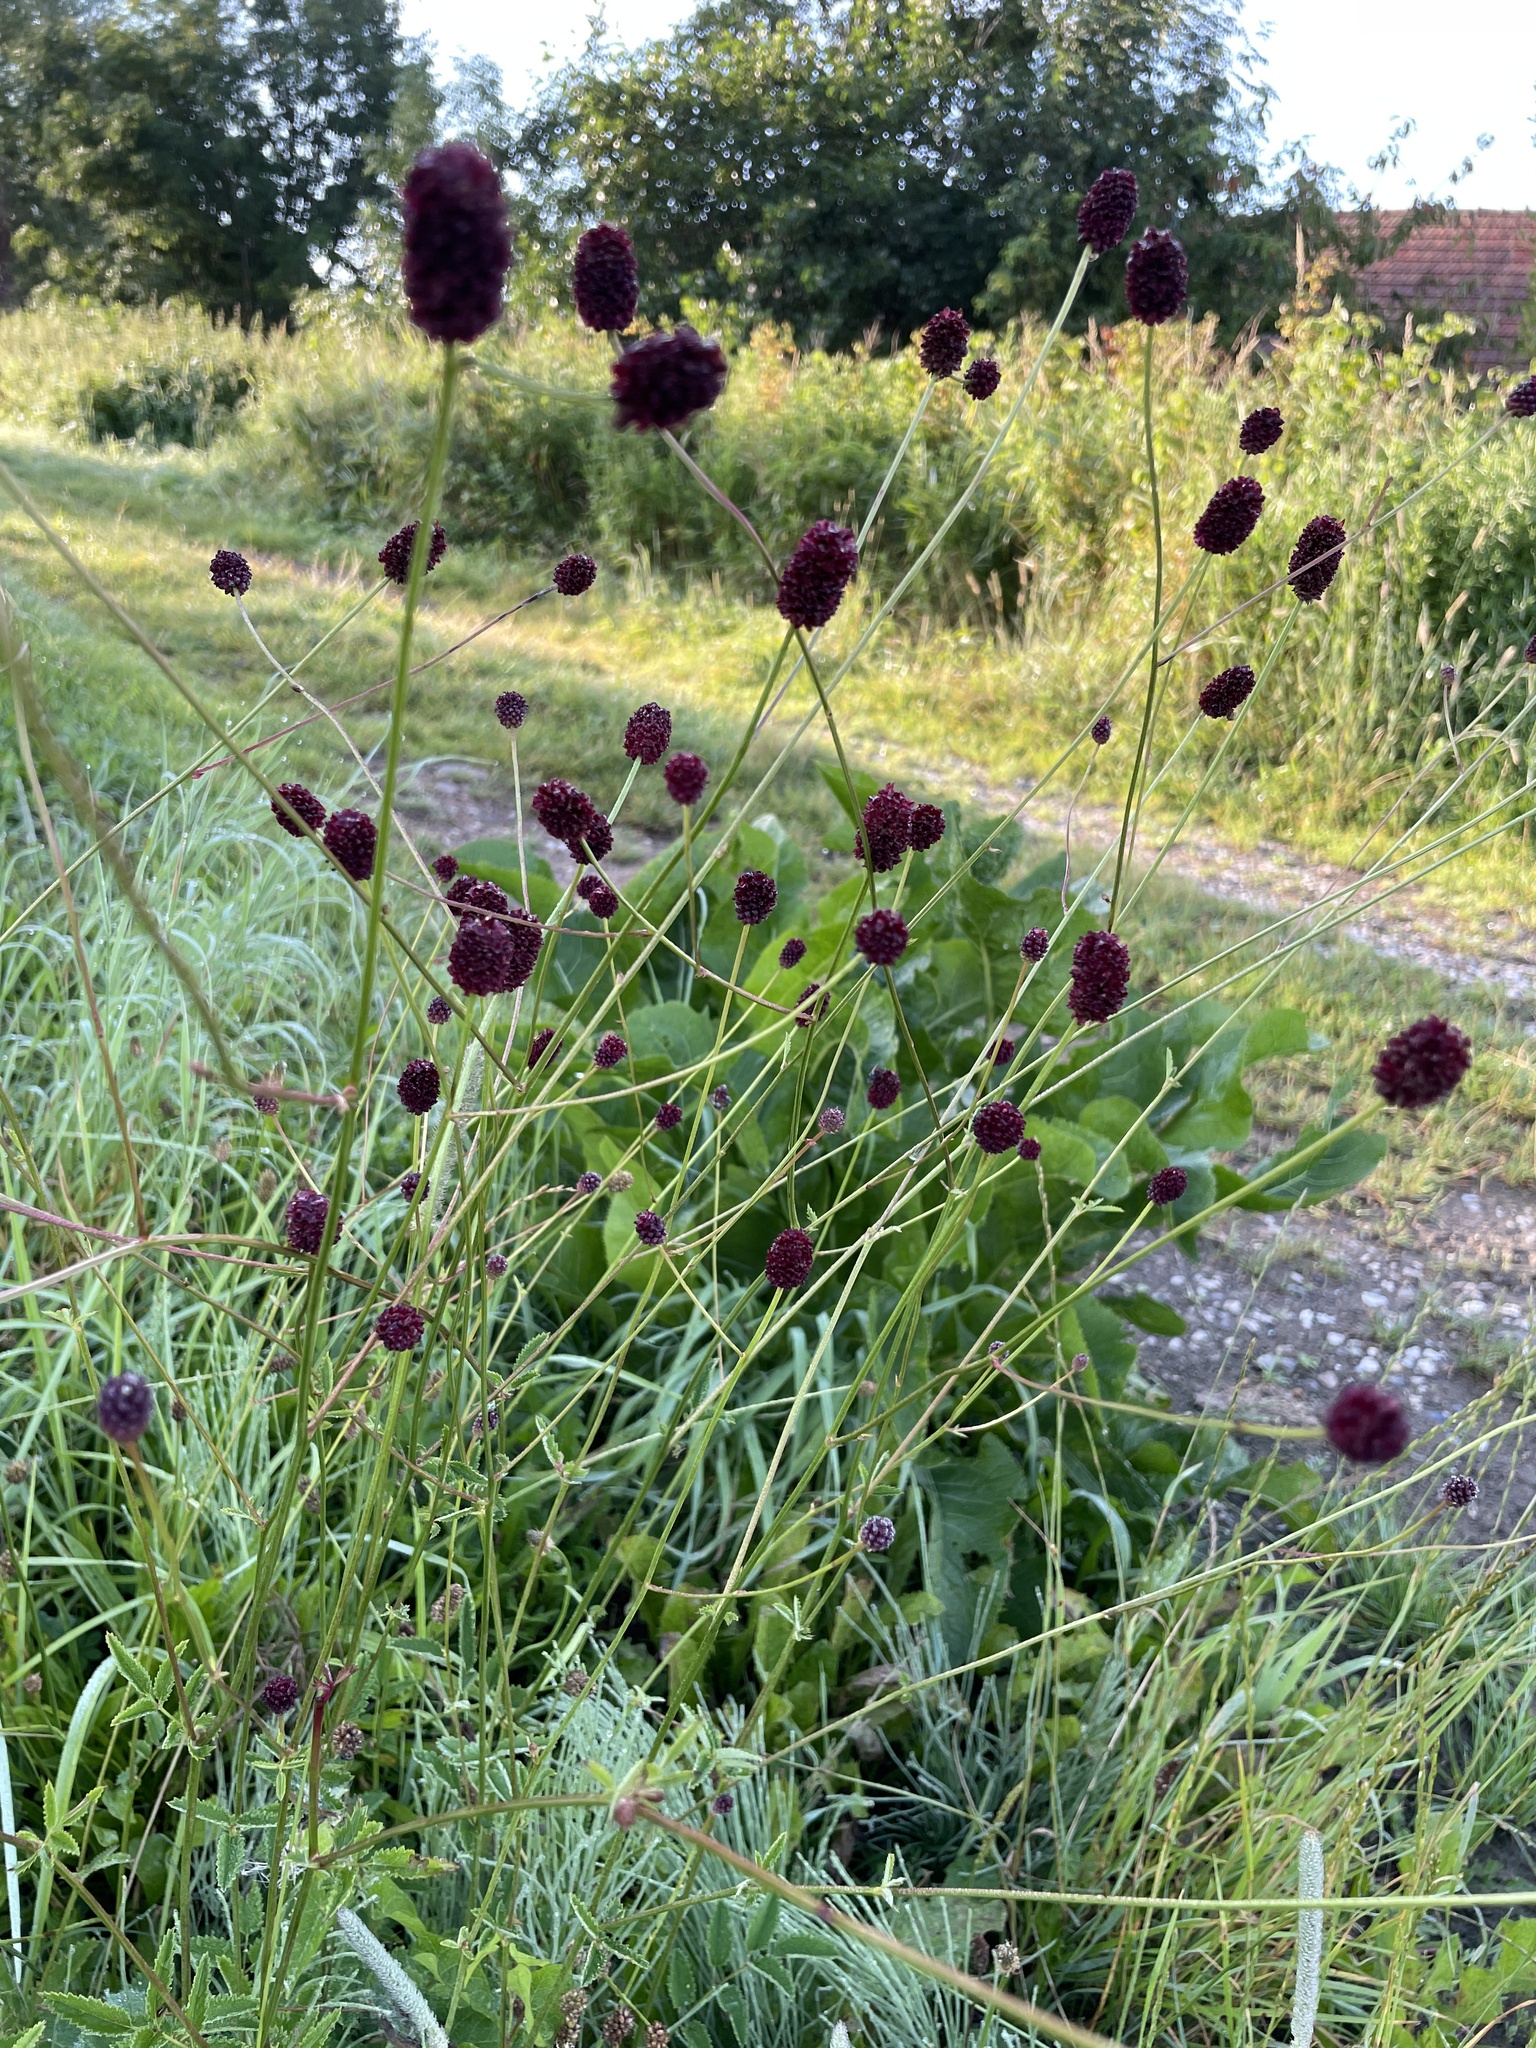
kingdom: Plantae
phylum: Tracheophyta
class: Magnoliopsida
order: Rosales
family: Rosaceae
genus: Sanguisorba
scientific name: Sanguisorba officinalis
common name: Great burnet
